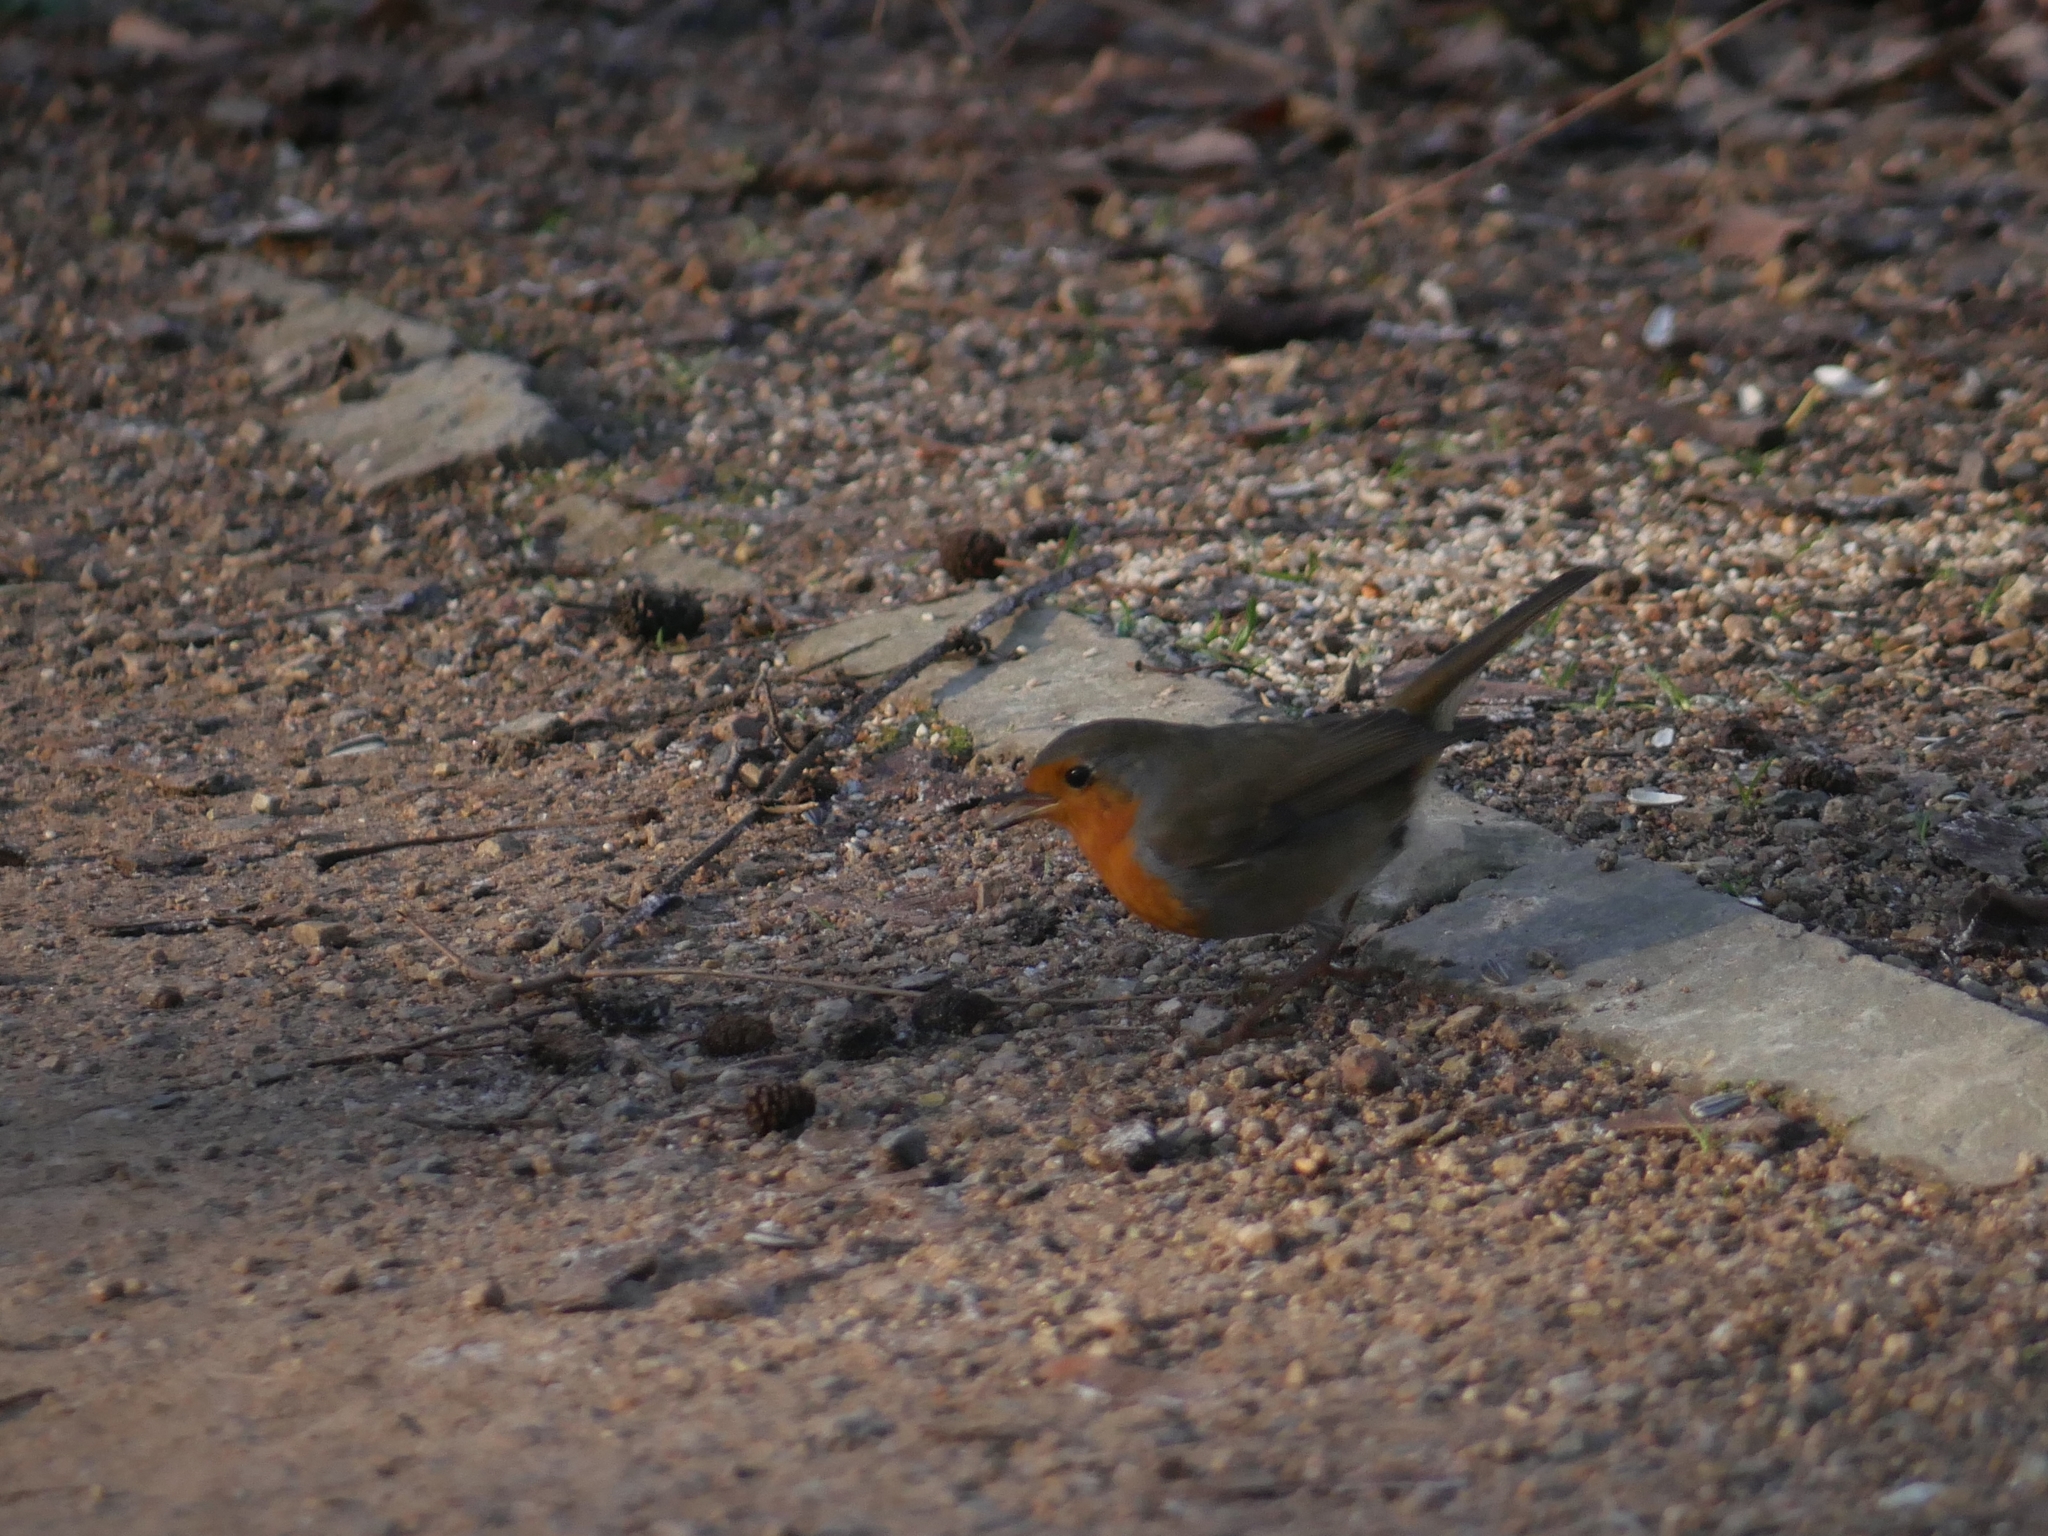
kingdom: Animalia
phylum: Chordata
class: Aves
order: Passeriformes
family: Muscicapidae
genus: Erithacus
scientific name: Erithacus rubecula
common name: European robin
